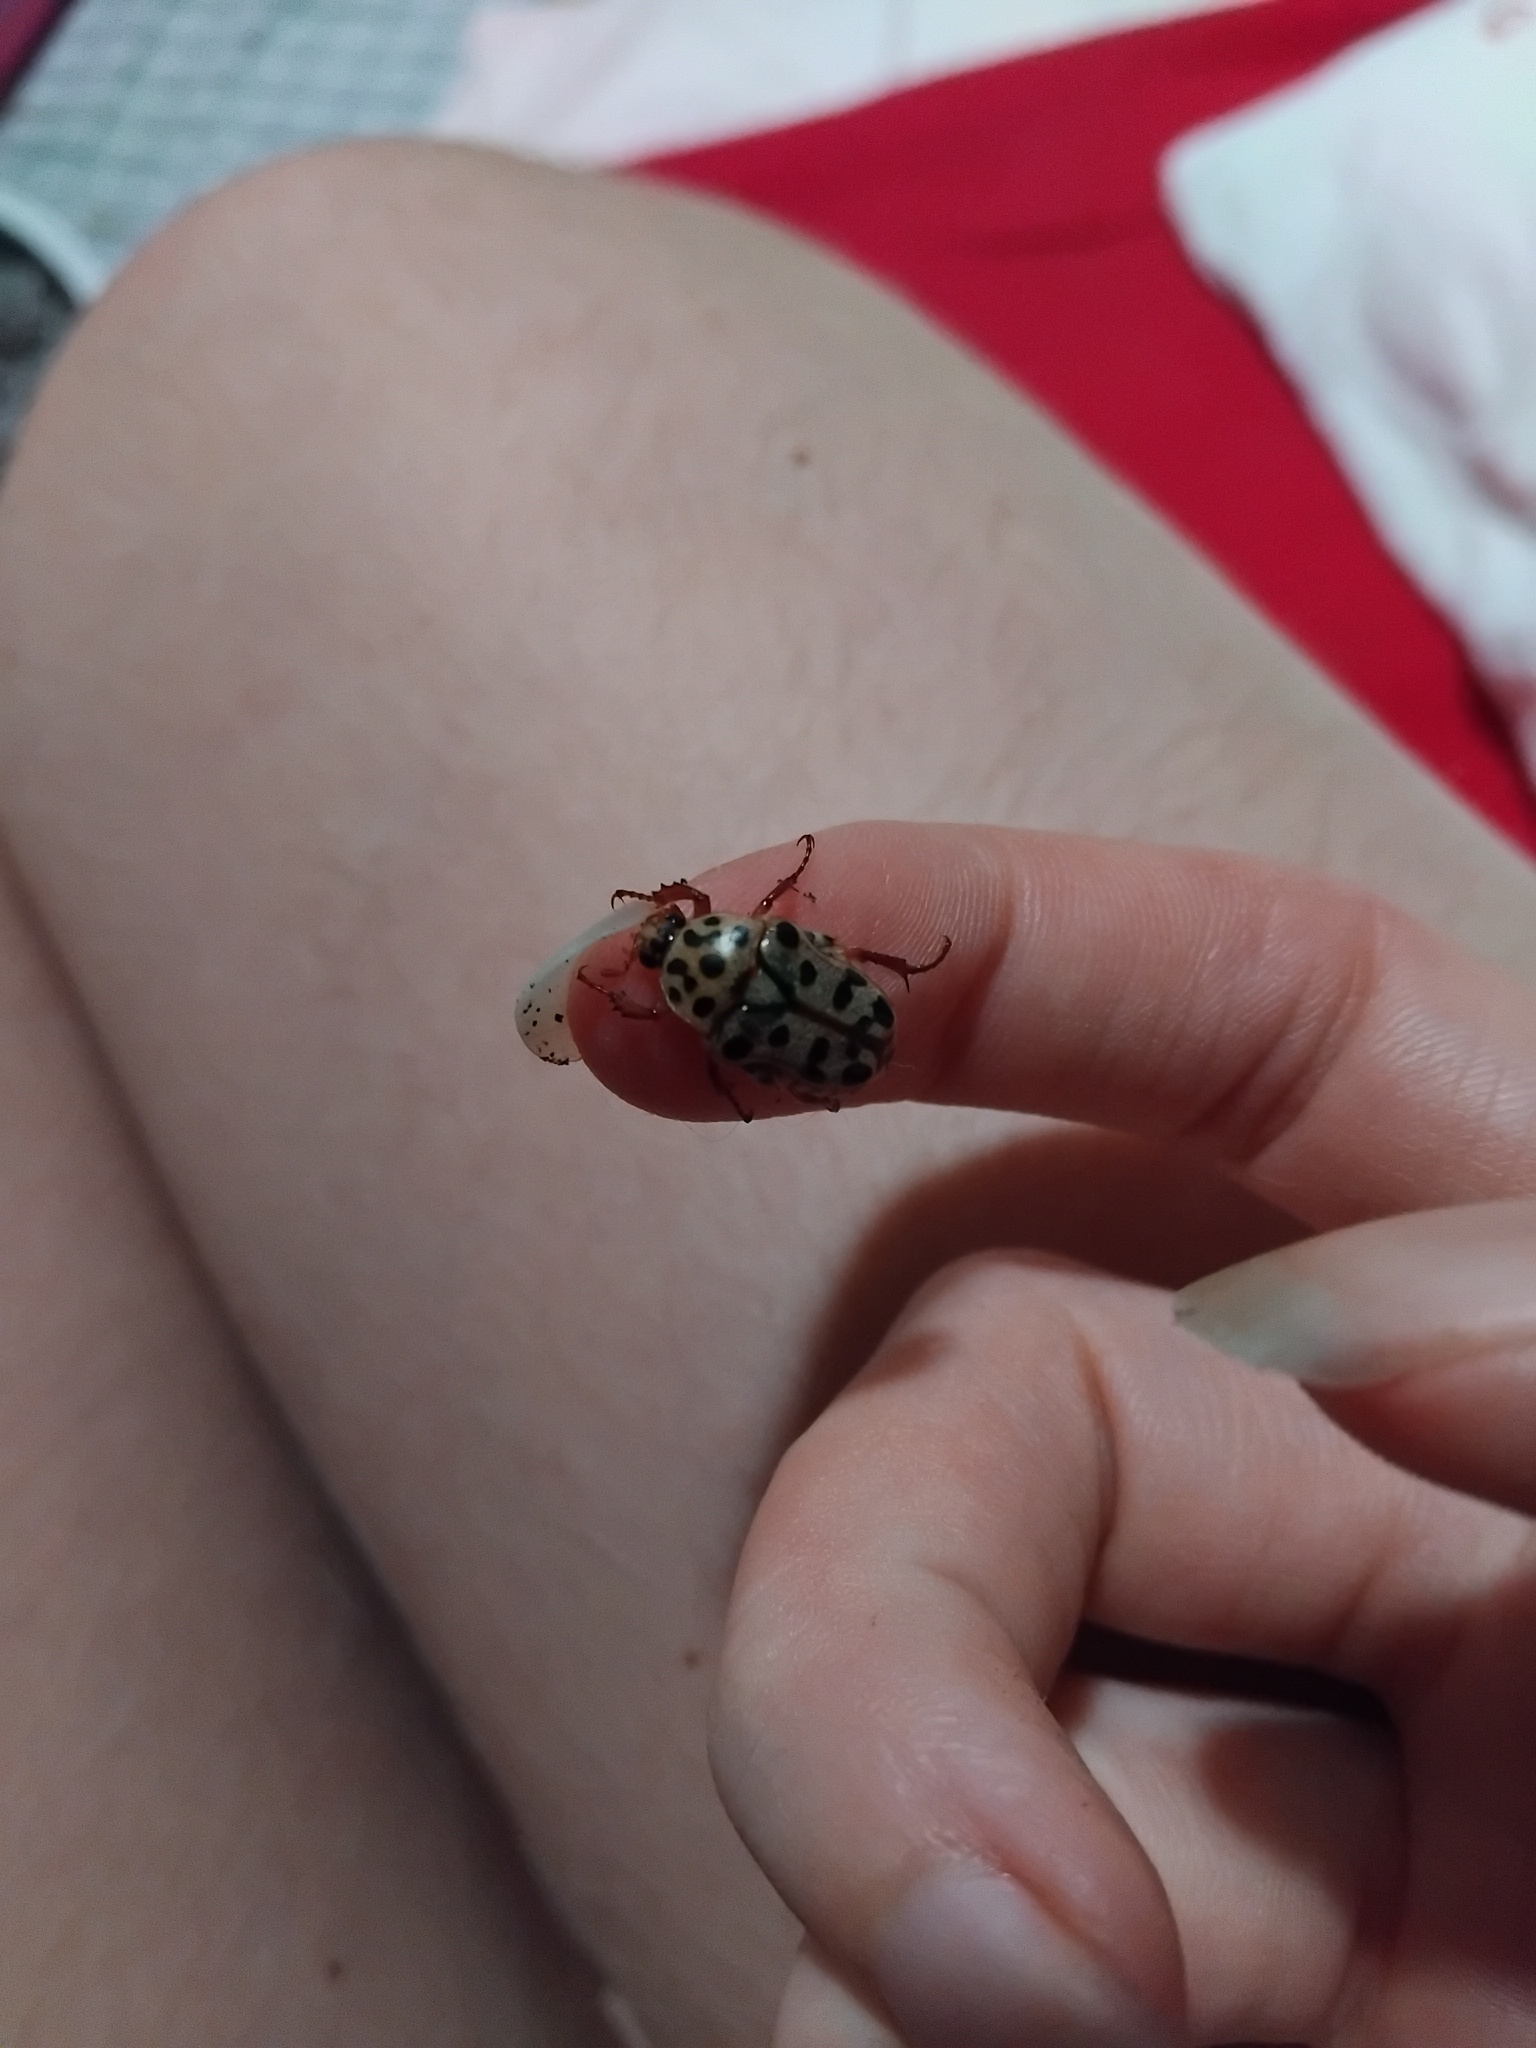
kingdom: Animalia
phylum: Arthropoda
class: Insecta
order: Coleoptera
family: Scarabaeidae
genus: Neorrhina
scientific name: Neorrhina punctatum
